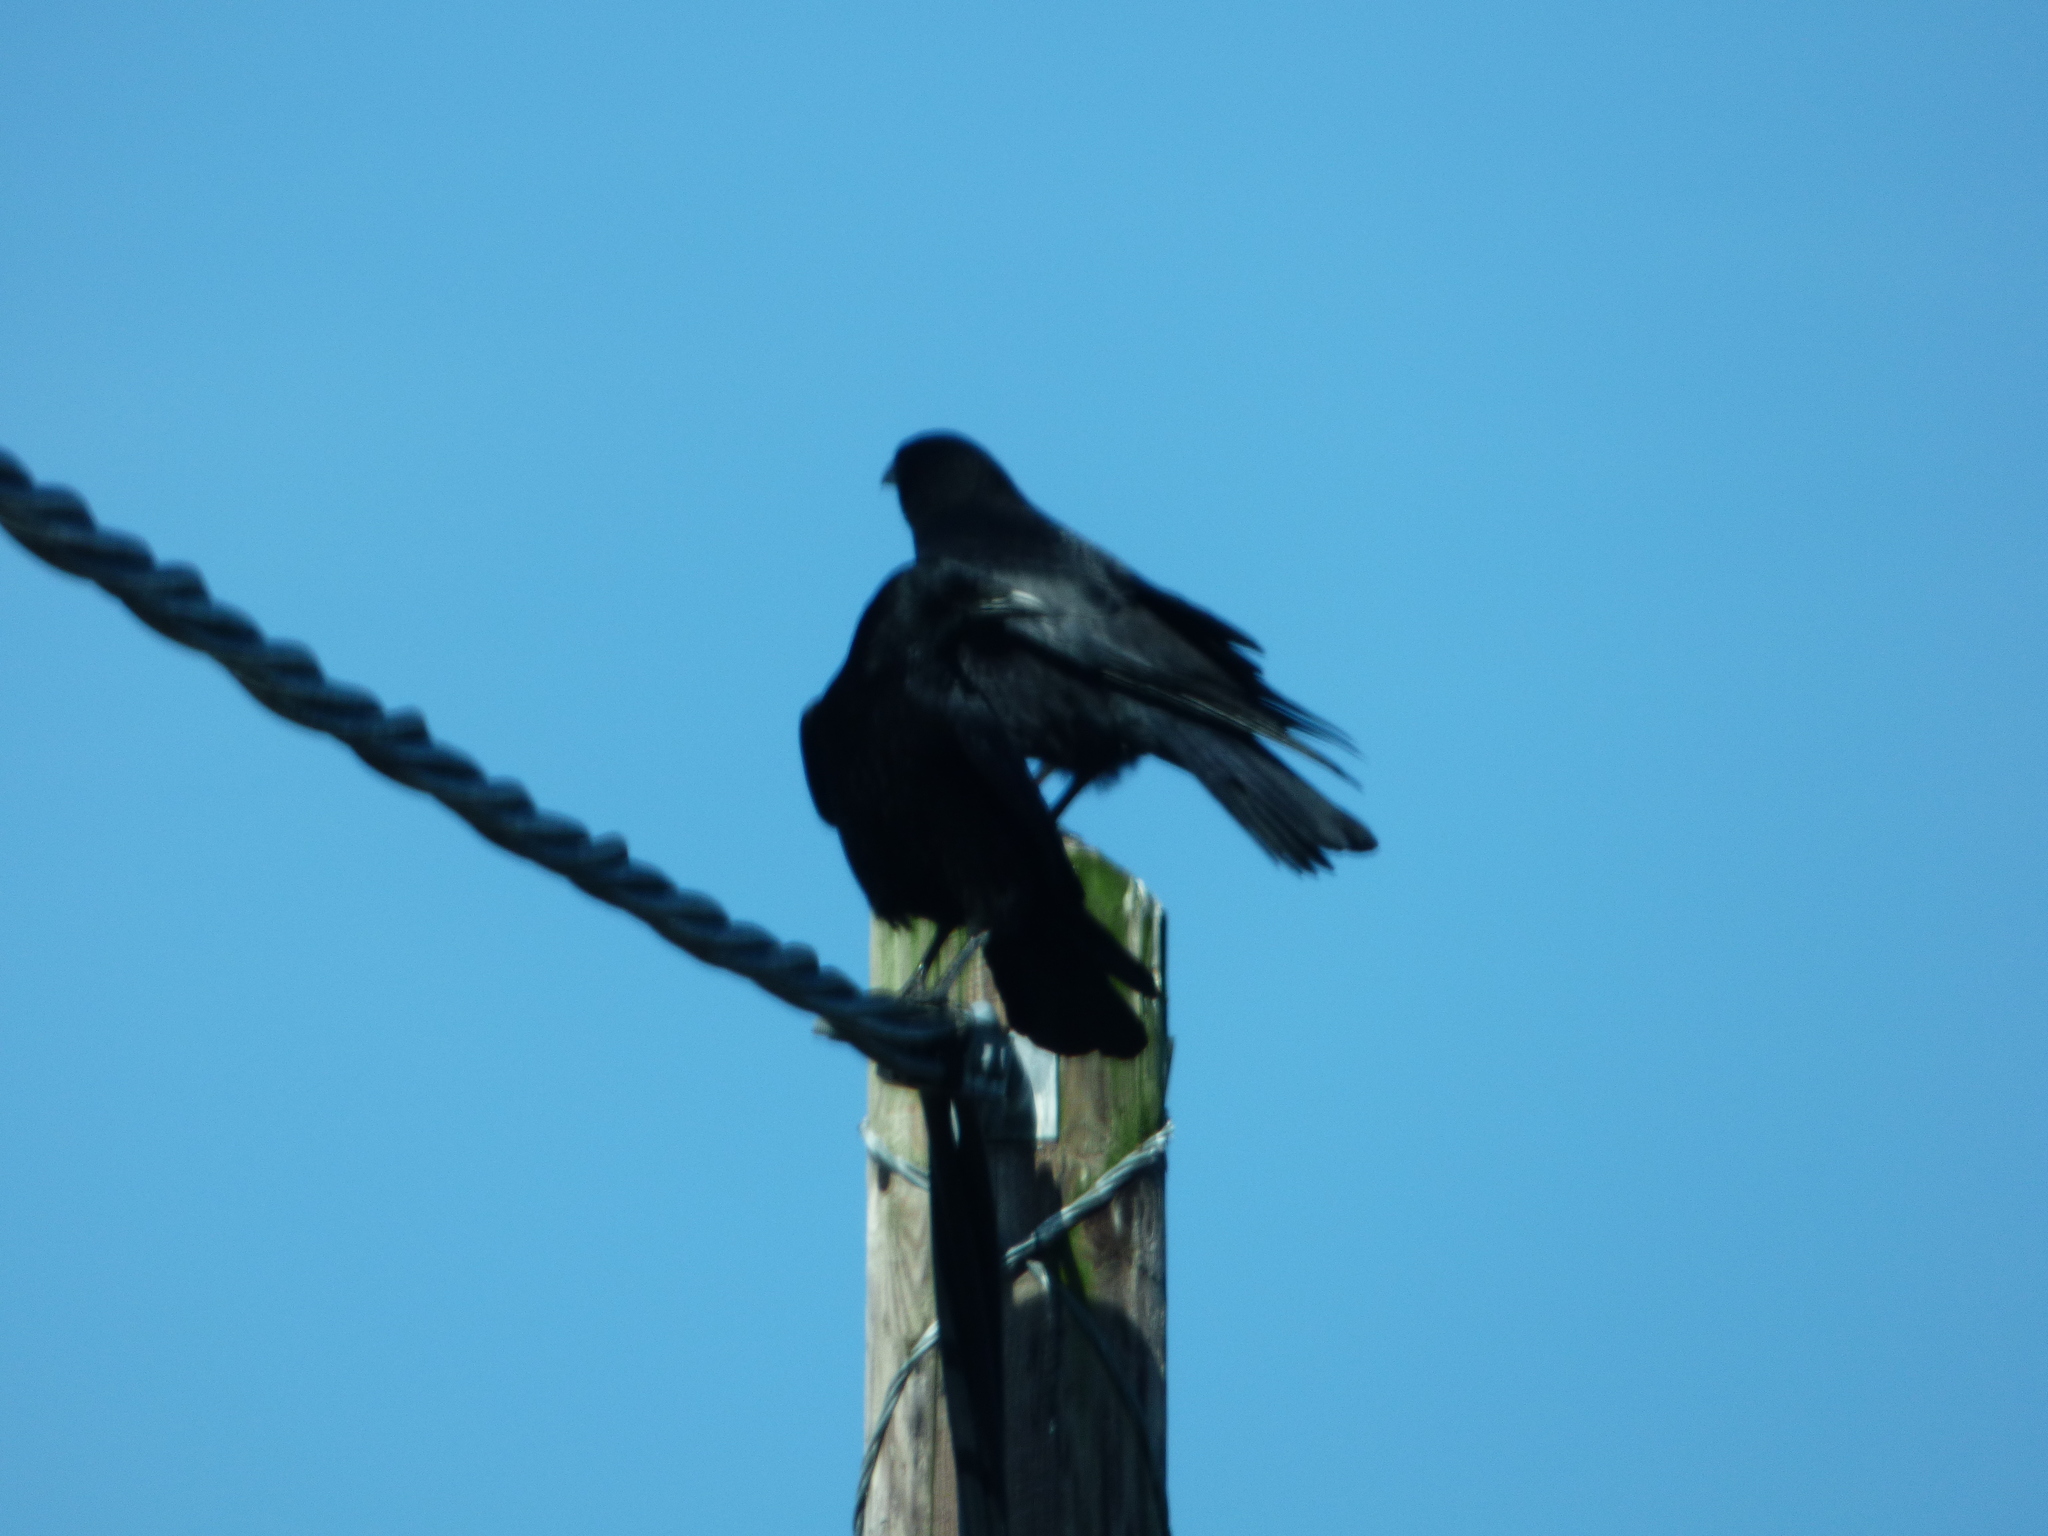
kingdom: Animalia
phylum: Chordata
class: Aves
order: Passeriformes
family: Corvidae
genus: Corvus
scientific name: Corvus corone
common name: Carrion crow
